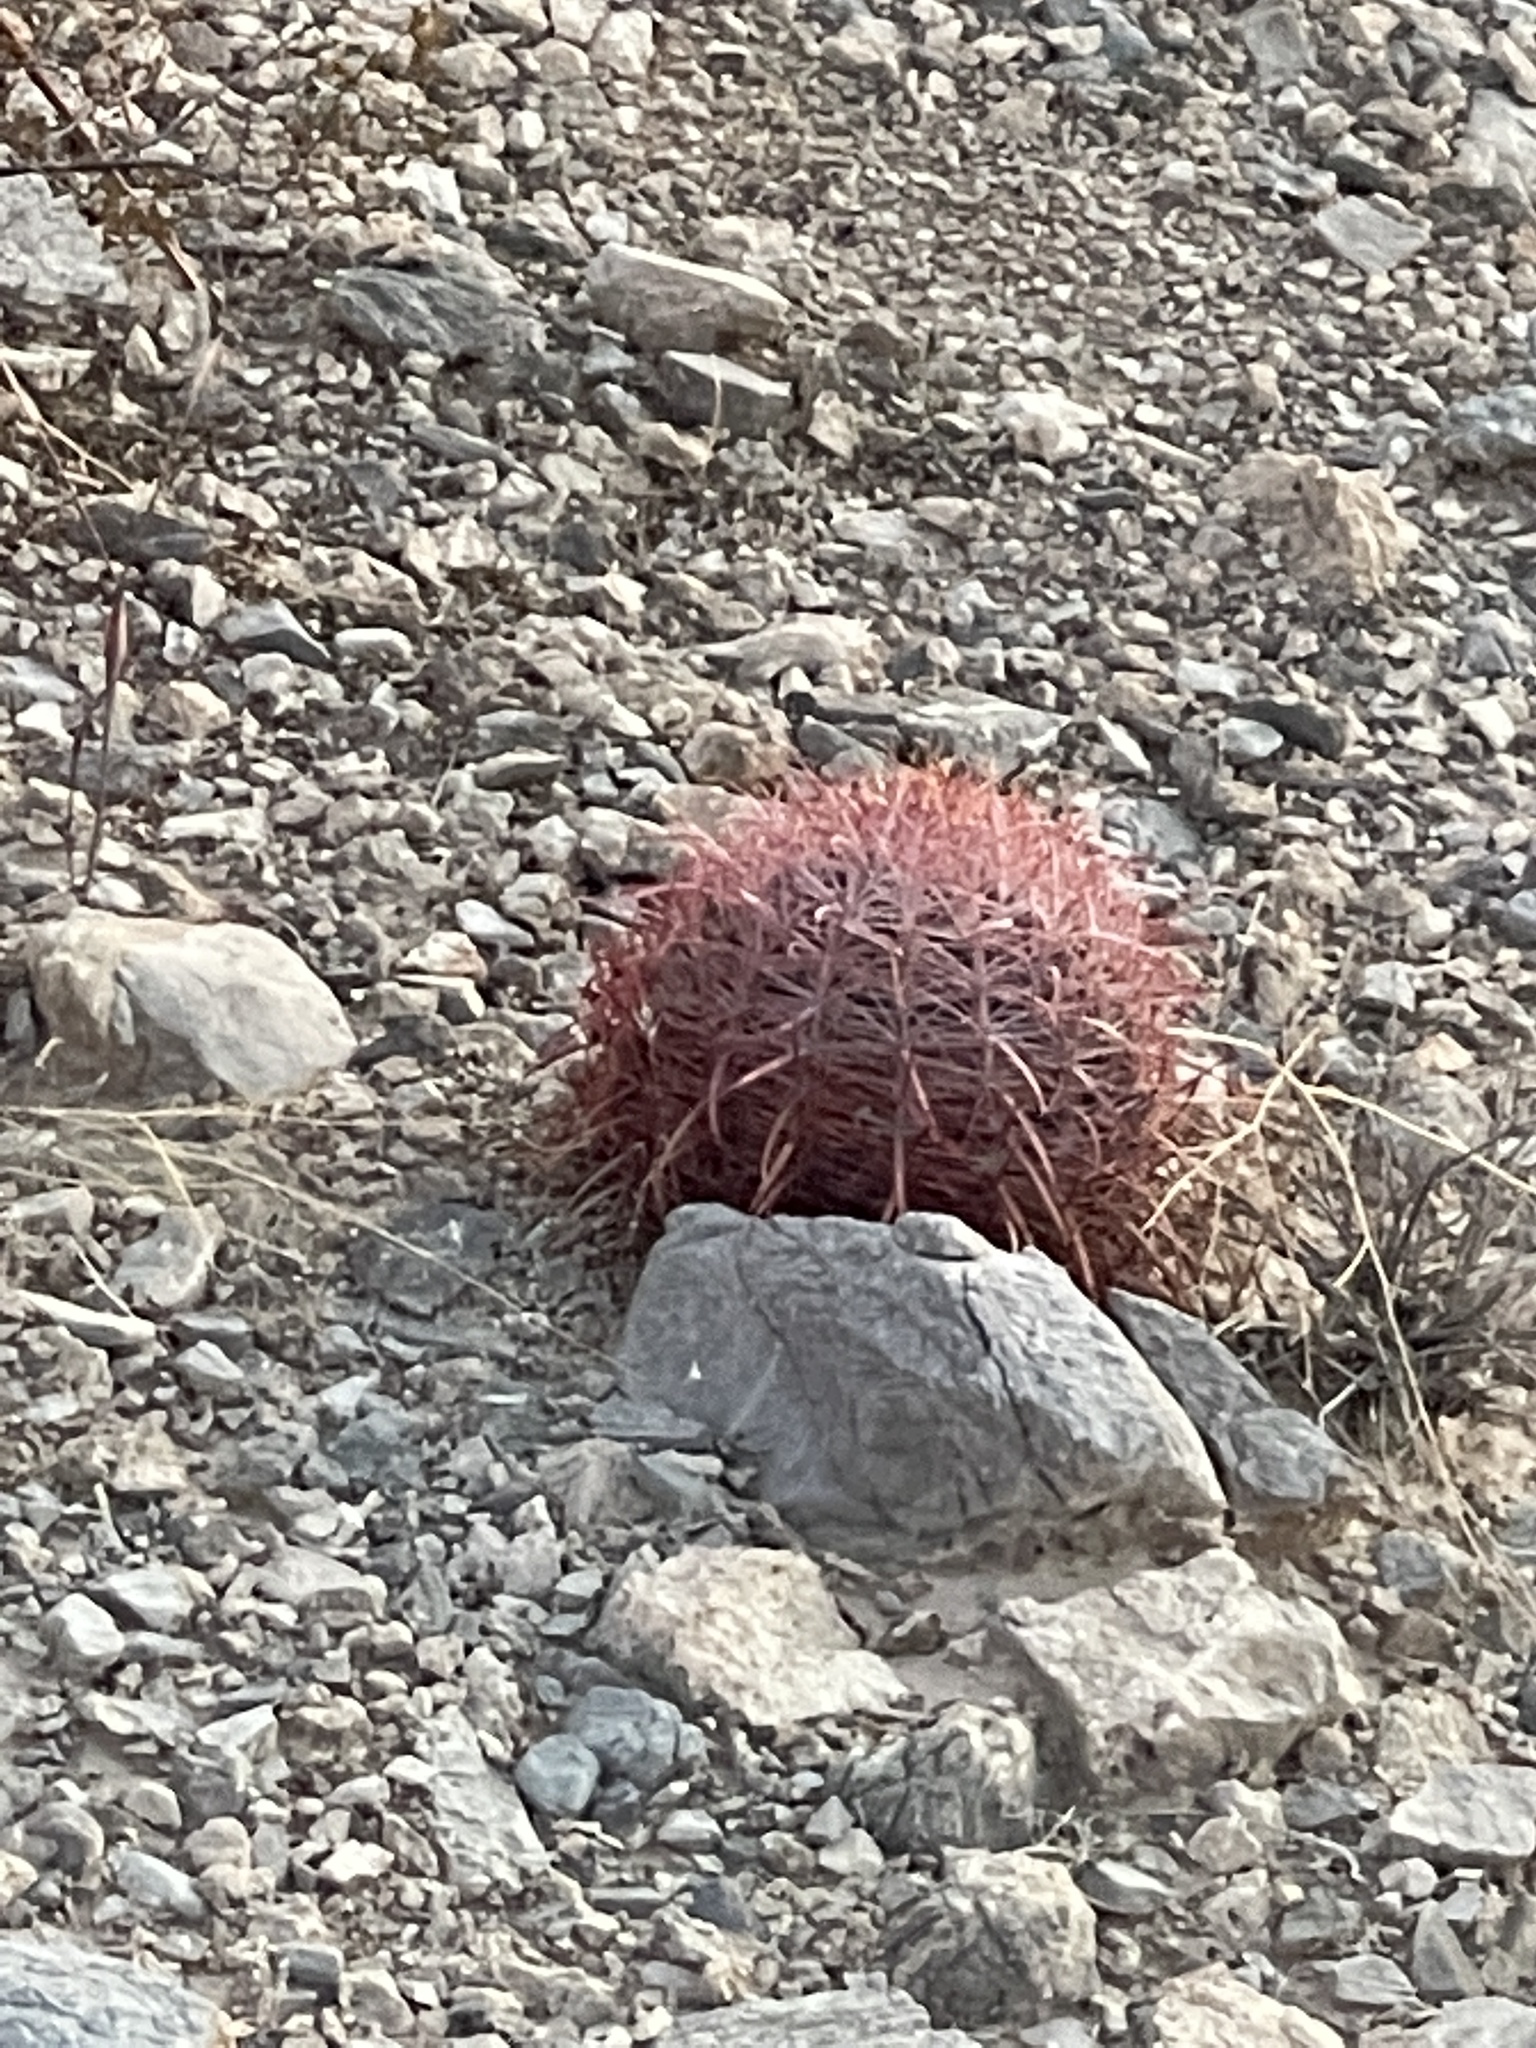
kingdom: Plantae
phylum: Tracheophyta
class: Magnoliopsida
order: Caryophyllales
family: Cactaceae
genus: Ferocactus
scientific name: Ferocactus cylindraceus
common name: California barrel cactus
